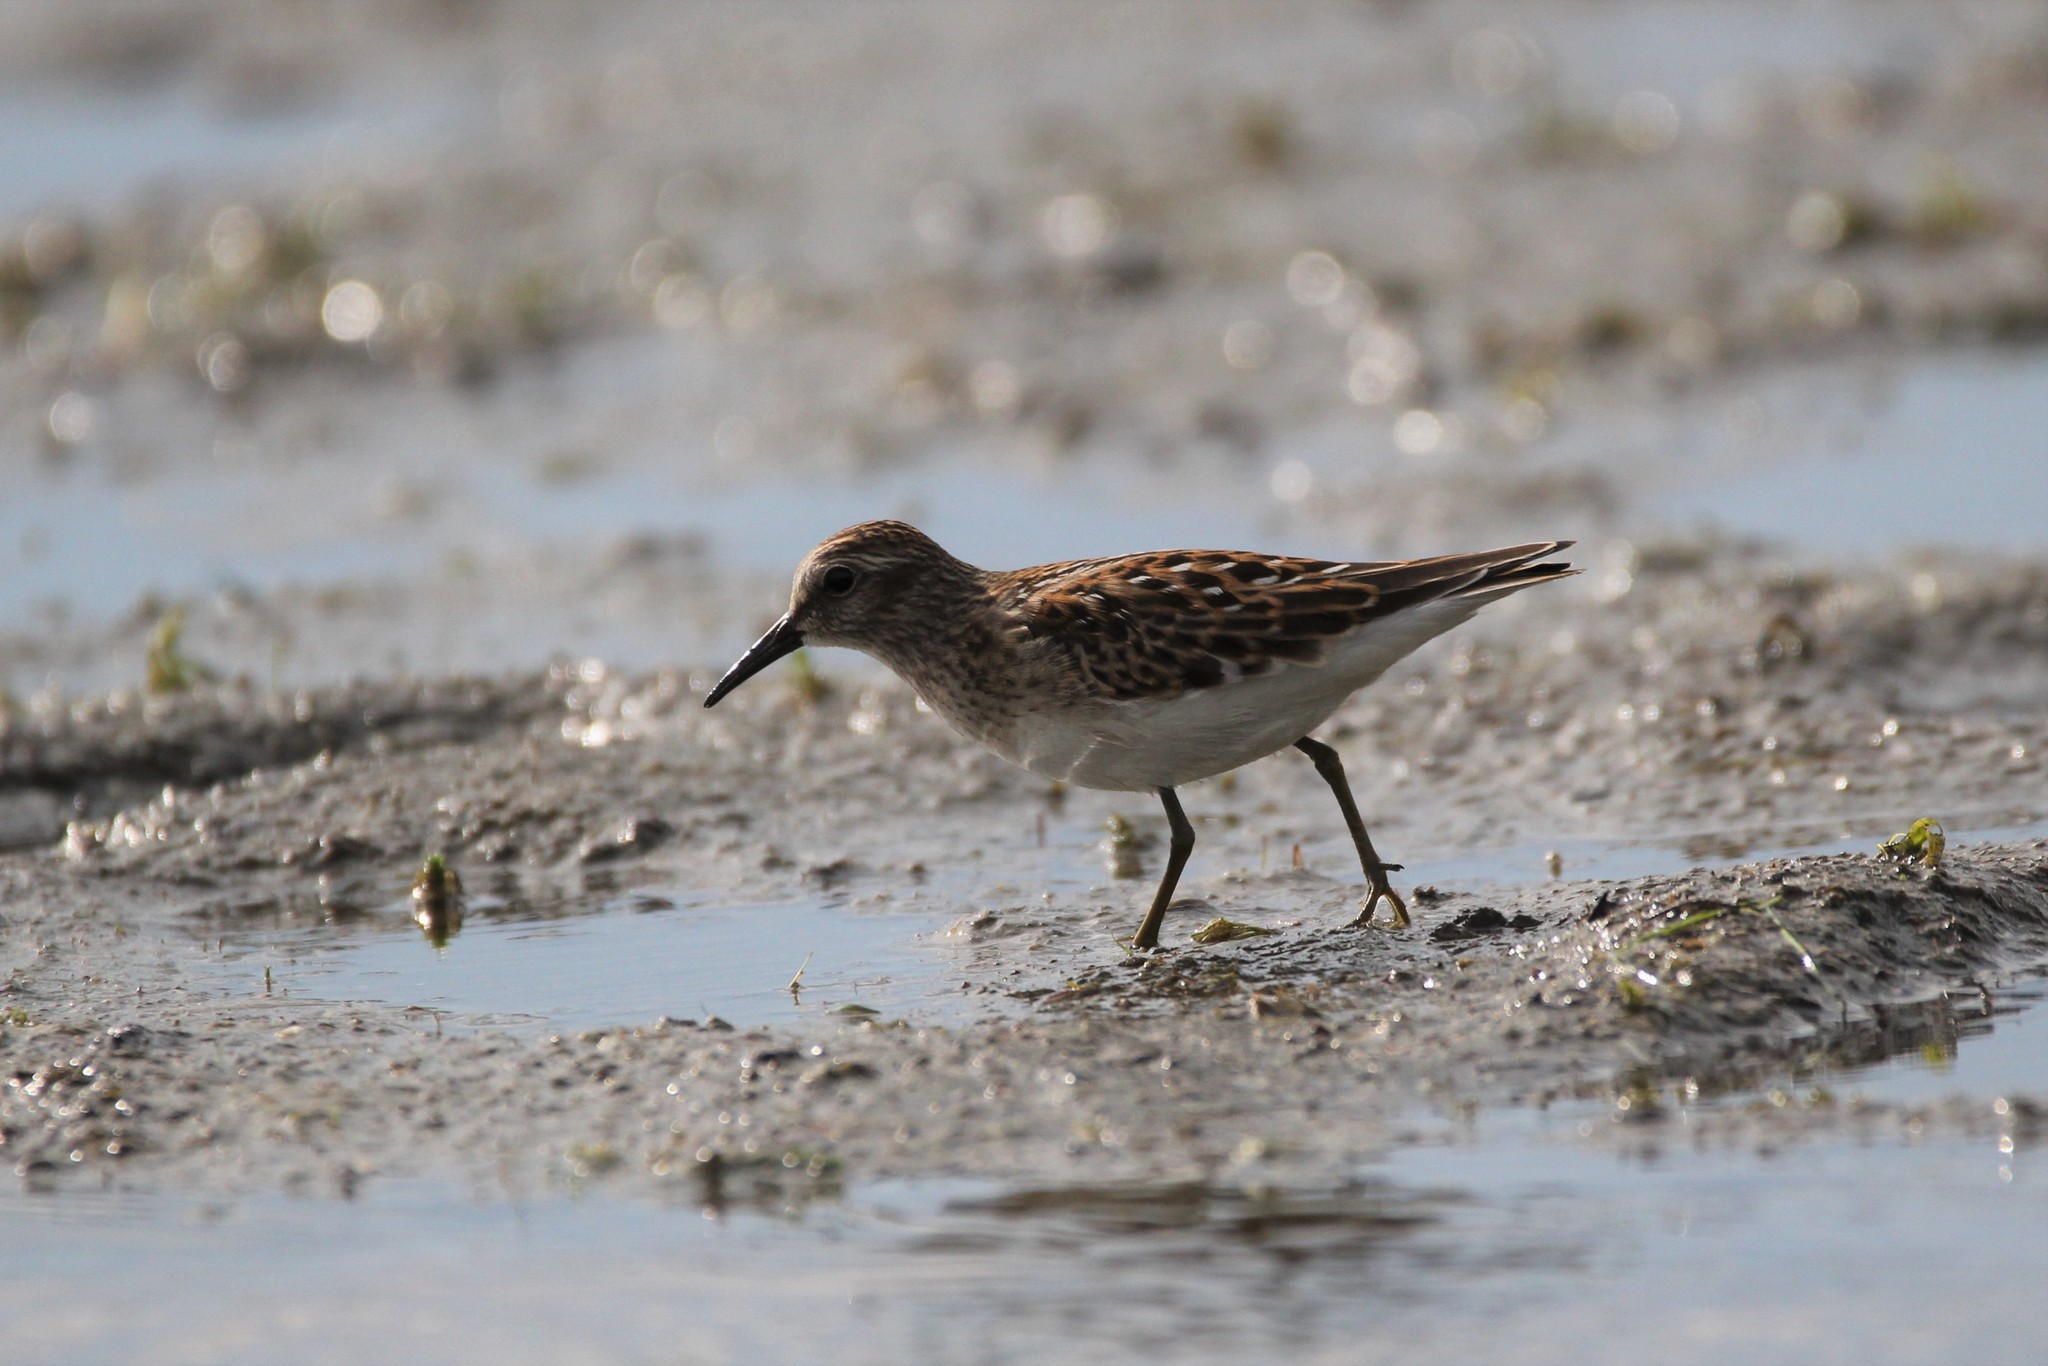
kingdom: Animalia
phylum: Chordata
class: Aves
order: Charadriiformes
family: Scolopacidae
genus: Calidris
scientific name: Calidris minutilla
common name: Least sandpiper
